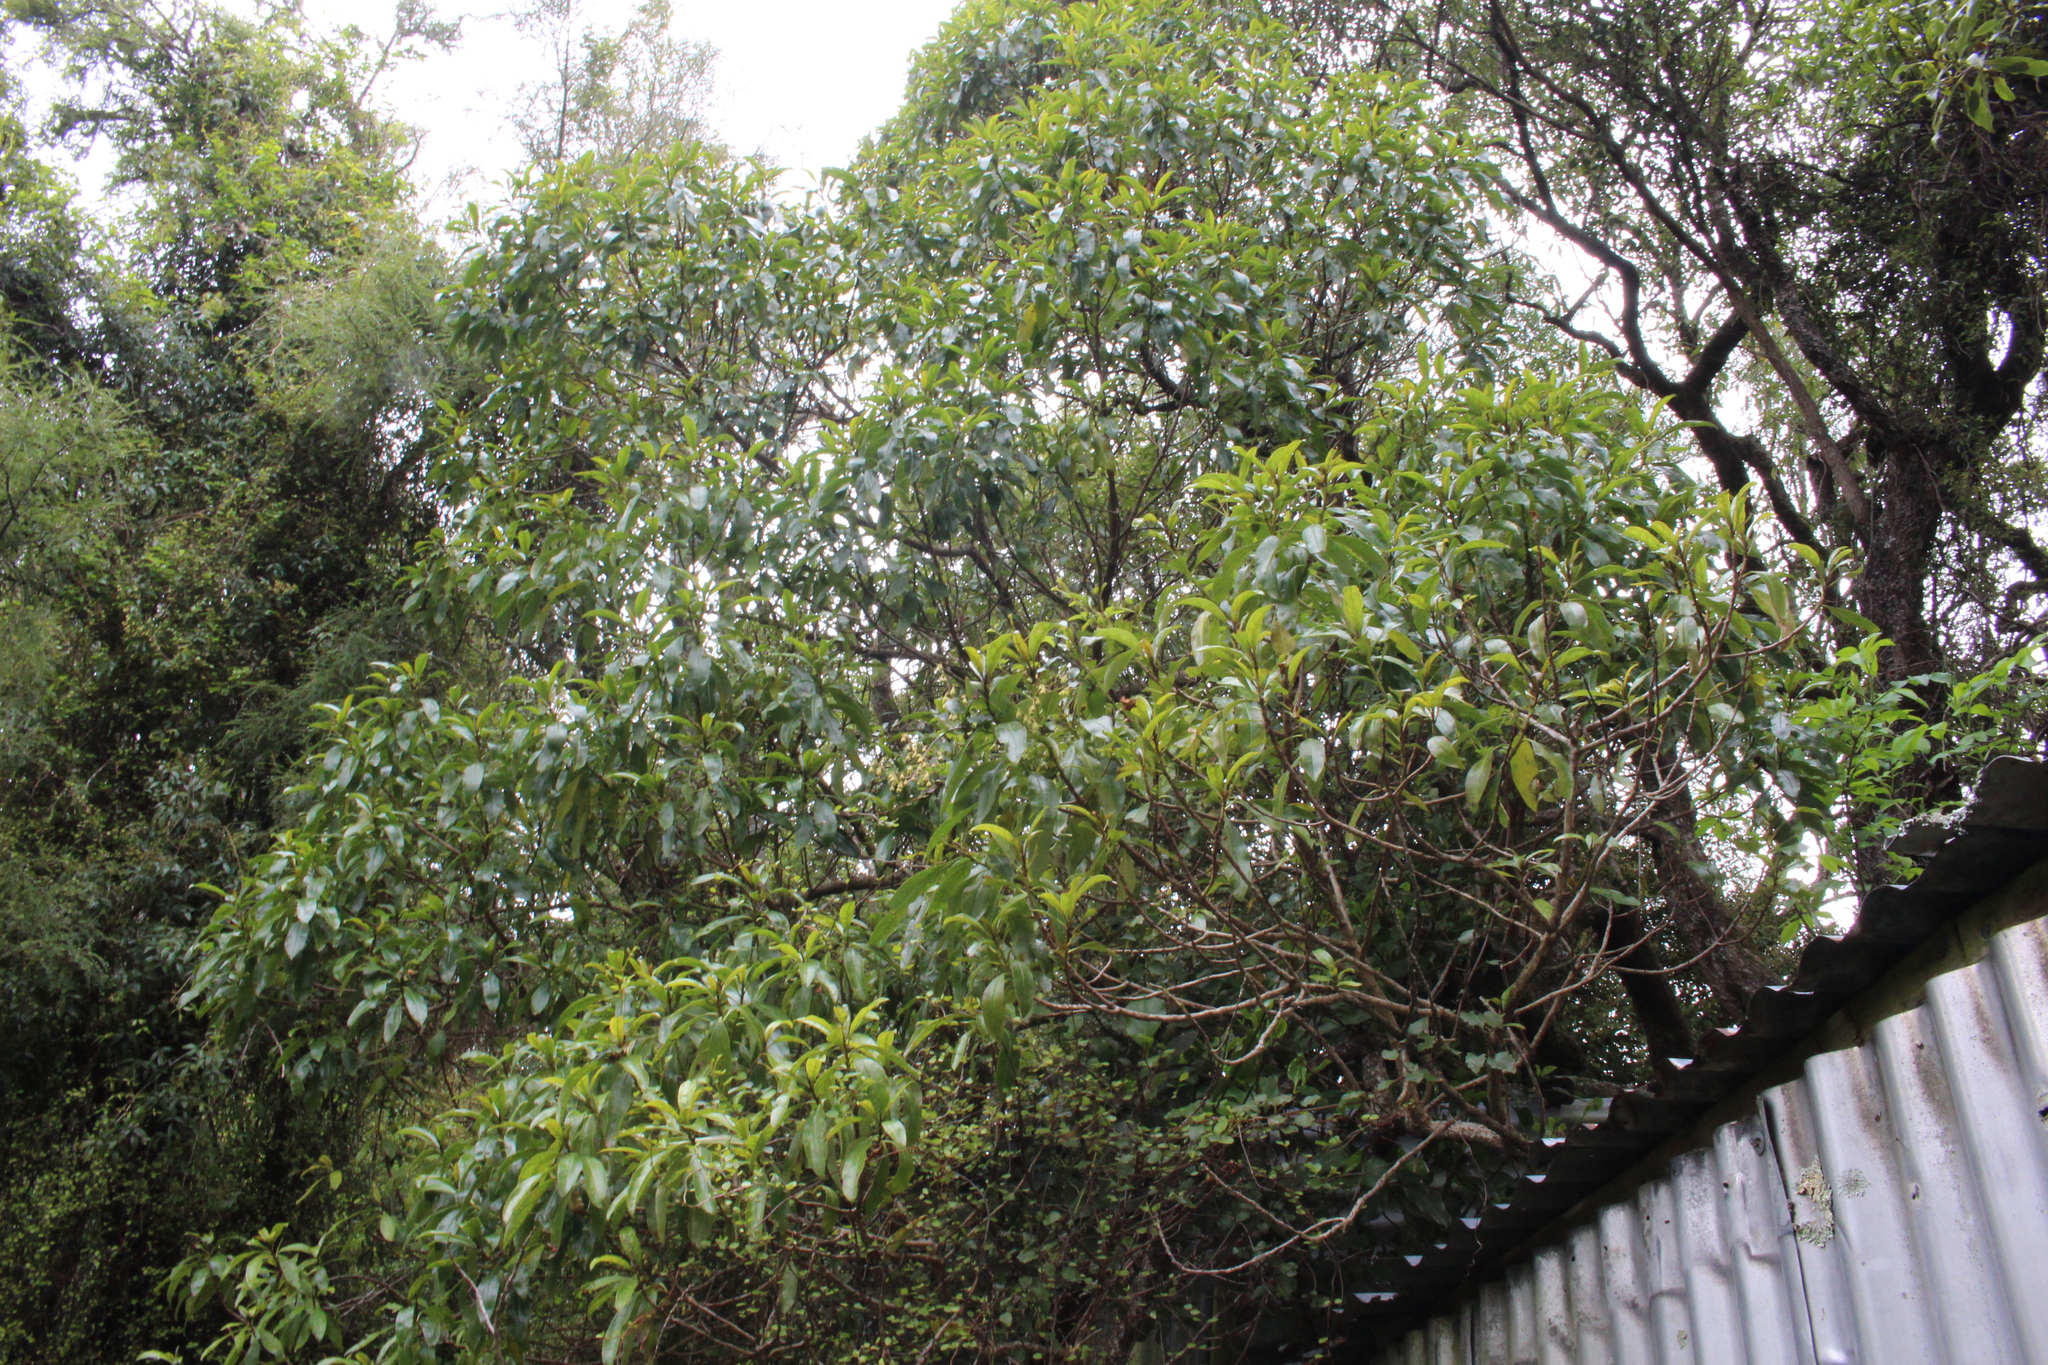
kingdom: Plantae
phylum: Tracheophyta
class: Magnoliopsida
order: Lamiales
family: Scrophulariaceae
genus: Myoporum
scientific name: Myoporum laetum
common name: Ngaio tree
